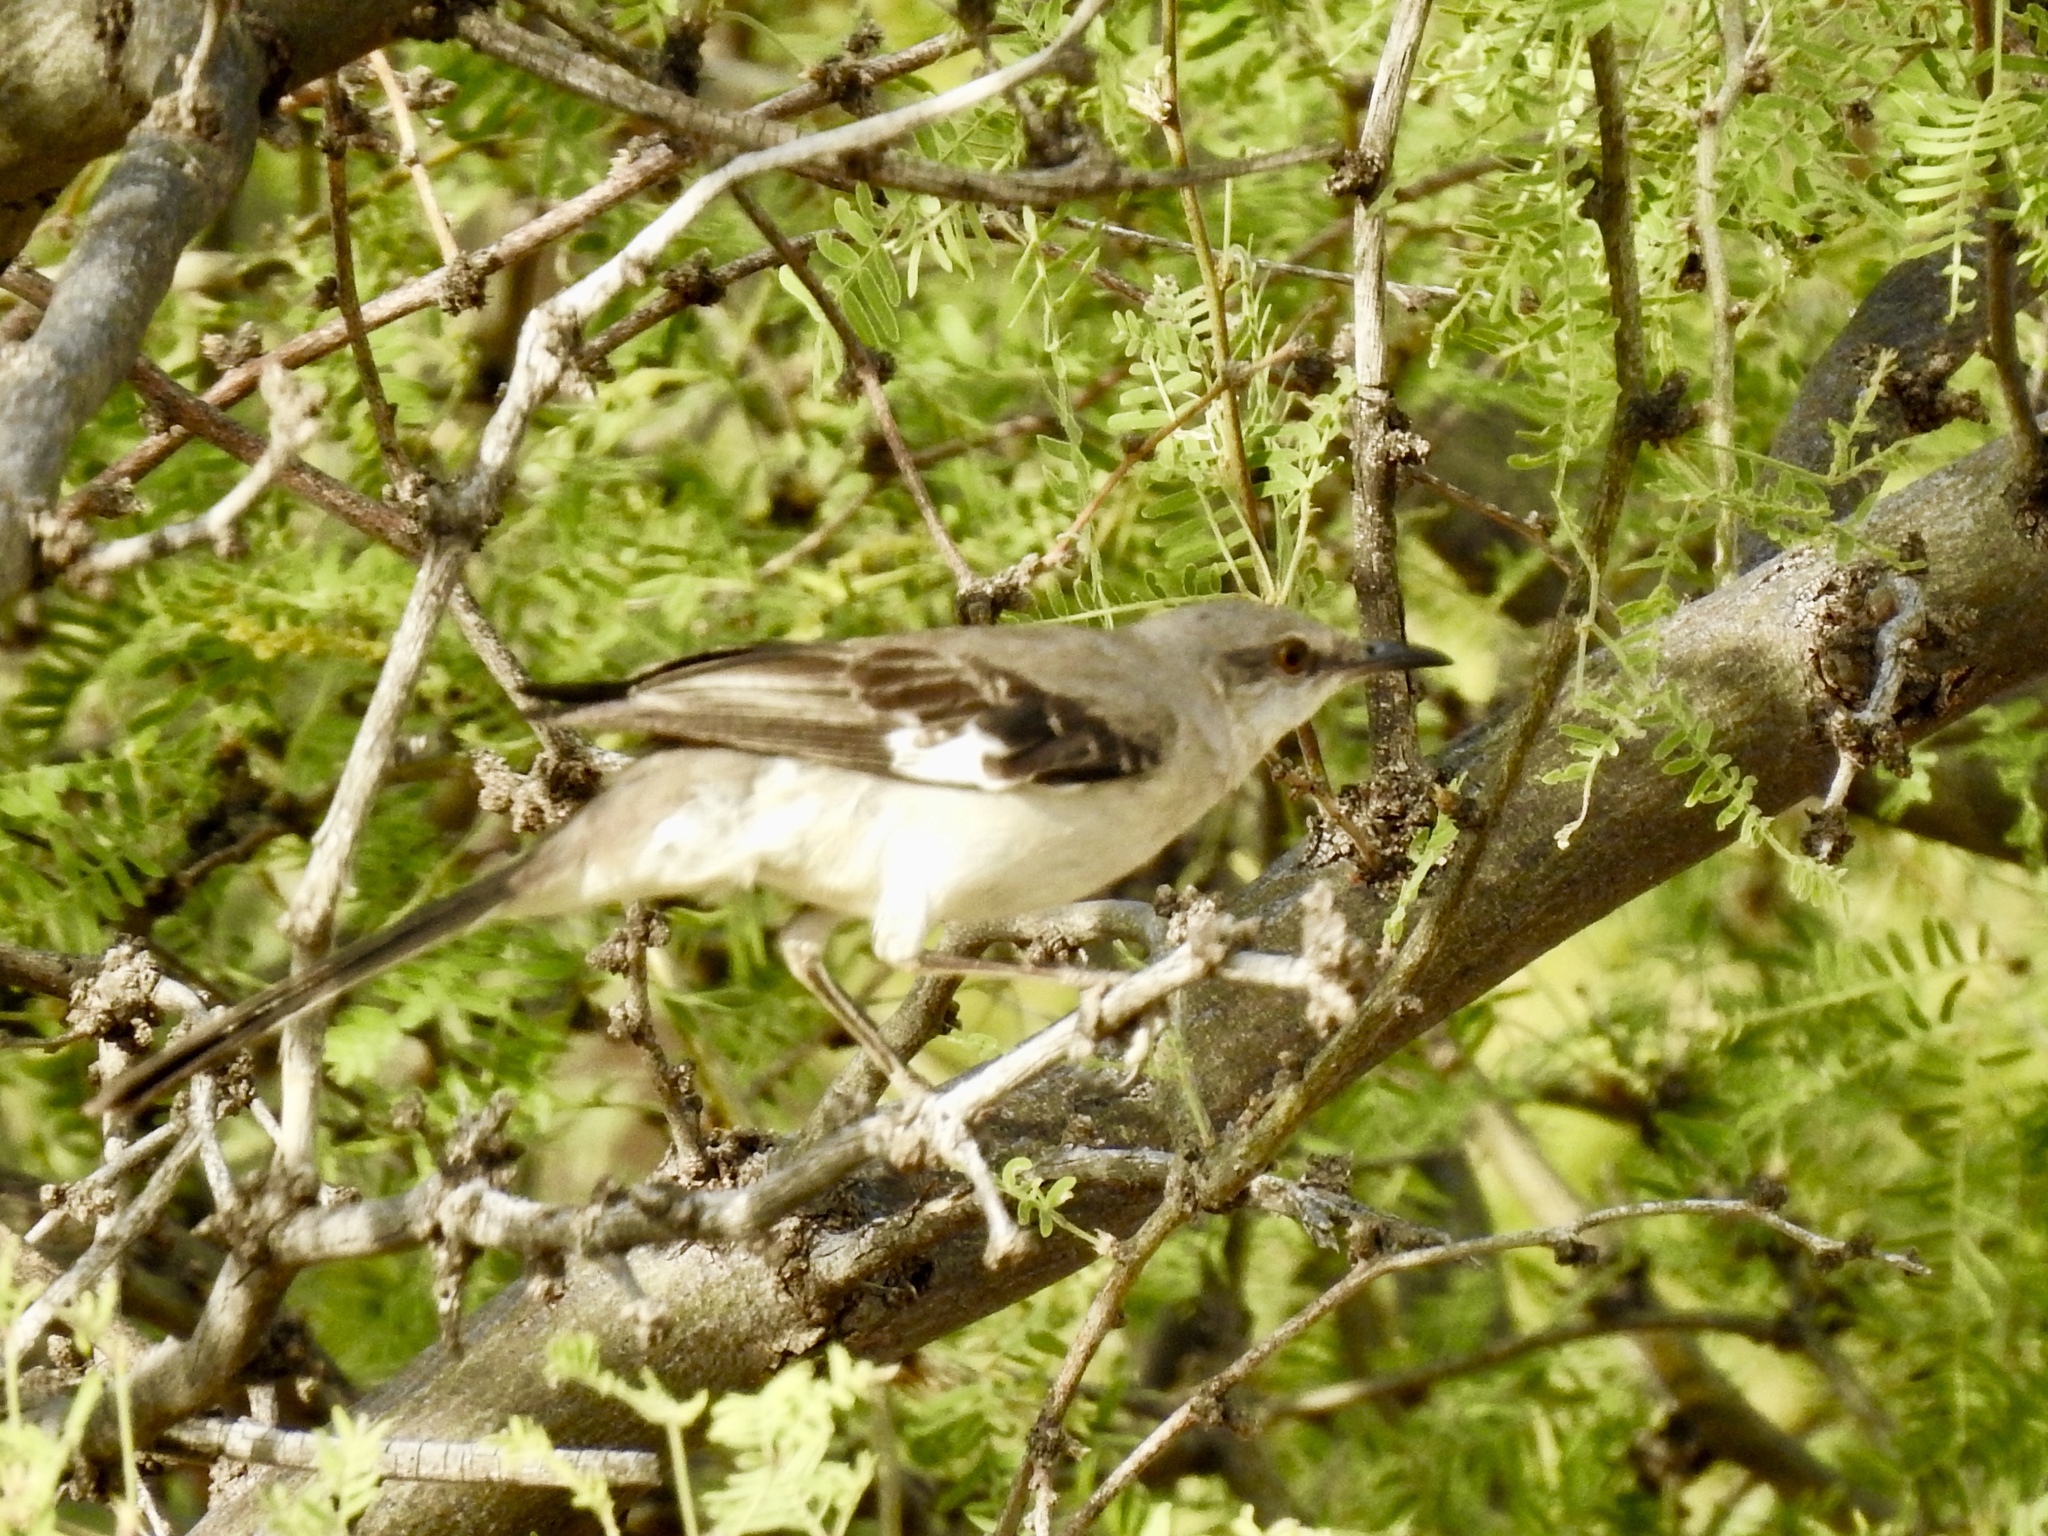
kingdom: Animalia
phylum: Chordata
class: Aves
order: Passeriformes
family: Mimidae
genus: Mimus
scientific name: Mimus polyglottos
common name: Northern mockingbird
